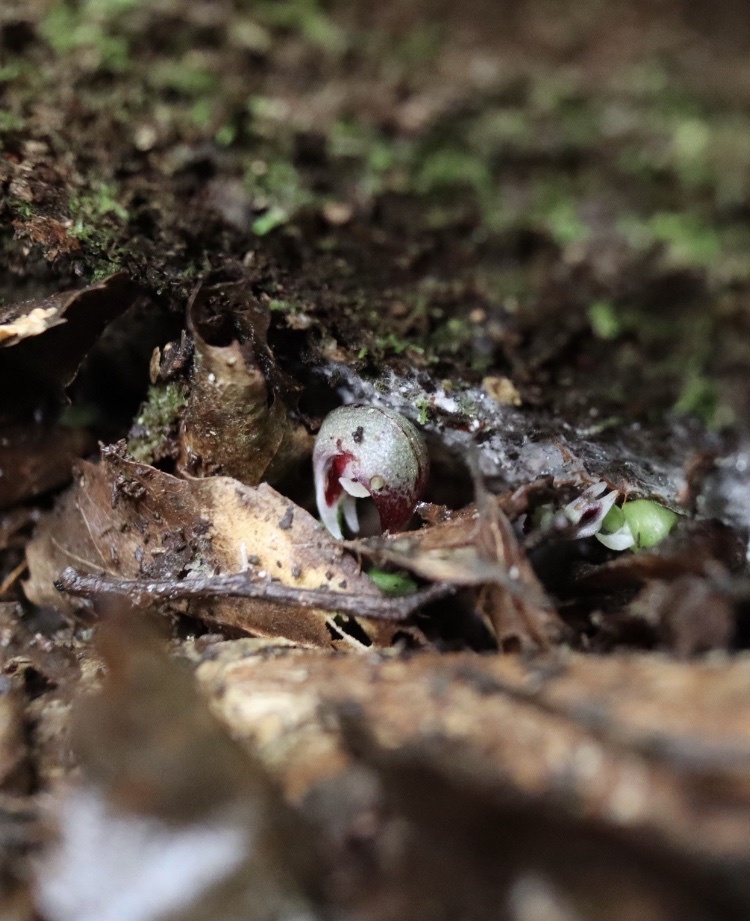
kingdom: Plantae
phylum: Tracheophyta
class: Liliopsida
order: Asparagales
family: Orchidaceae
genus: Corybas
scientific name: Corybas cheesemanii
